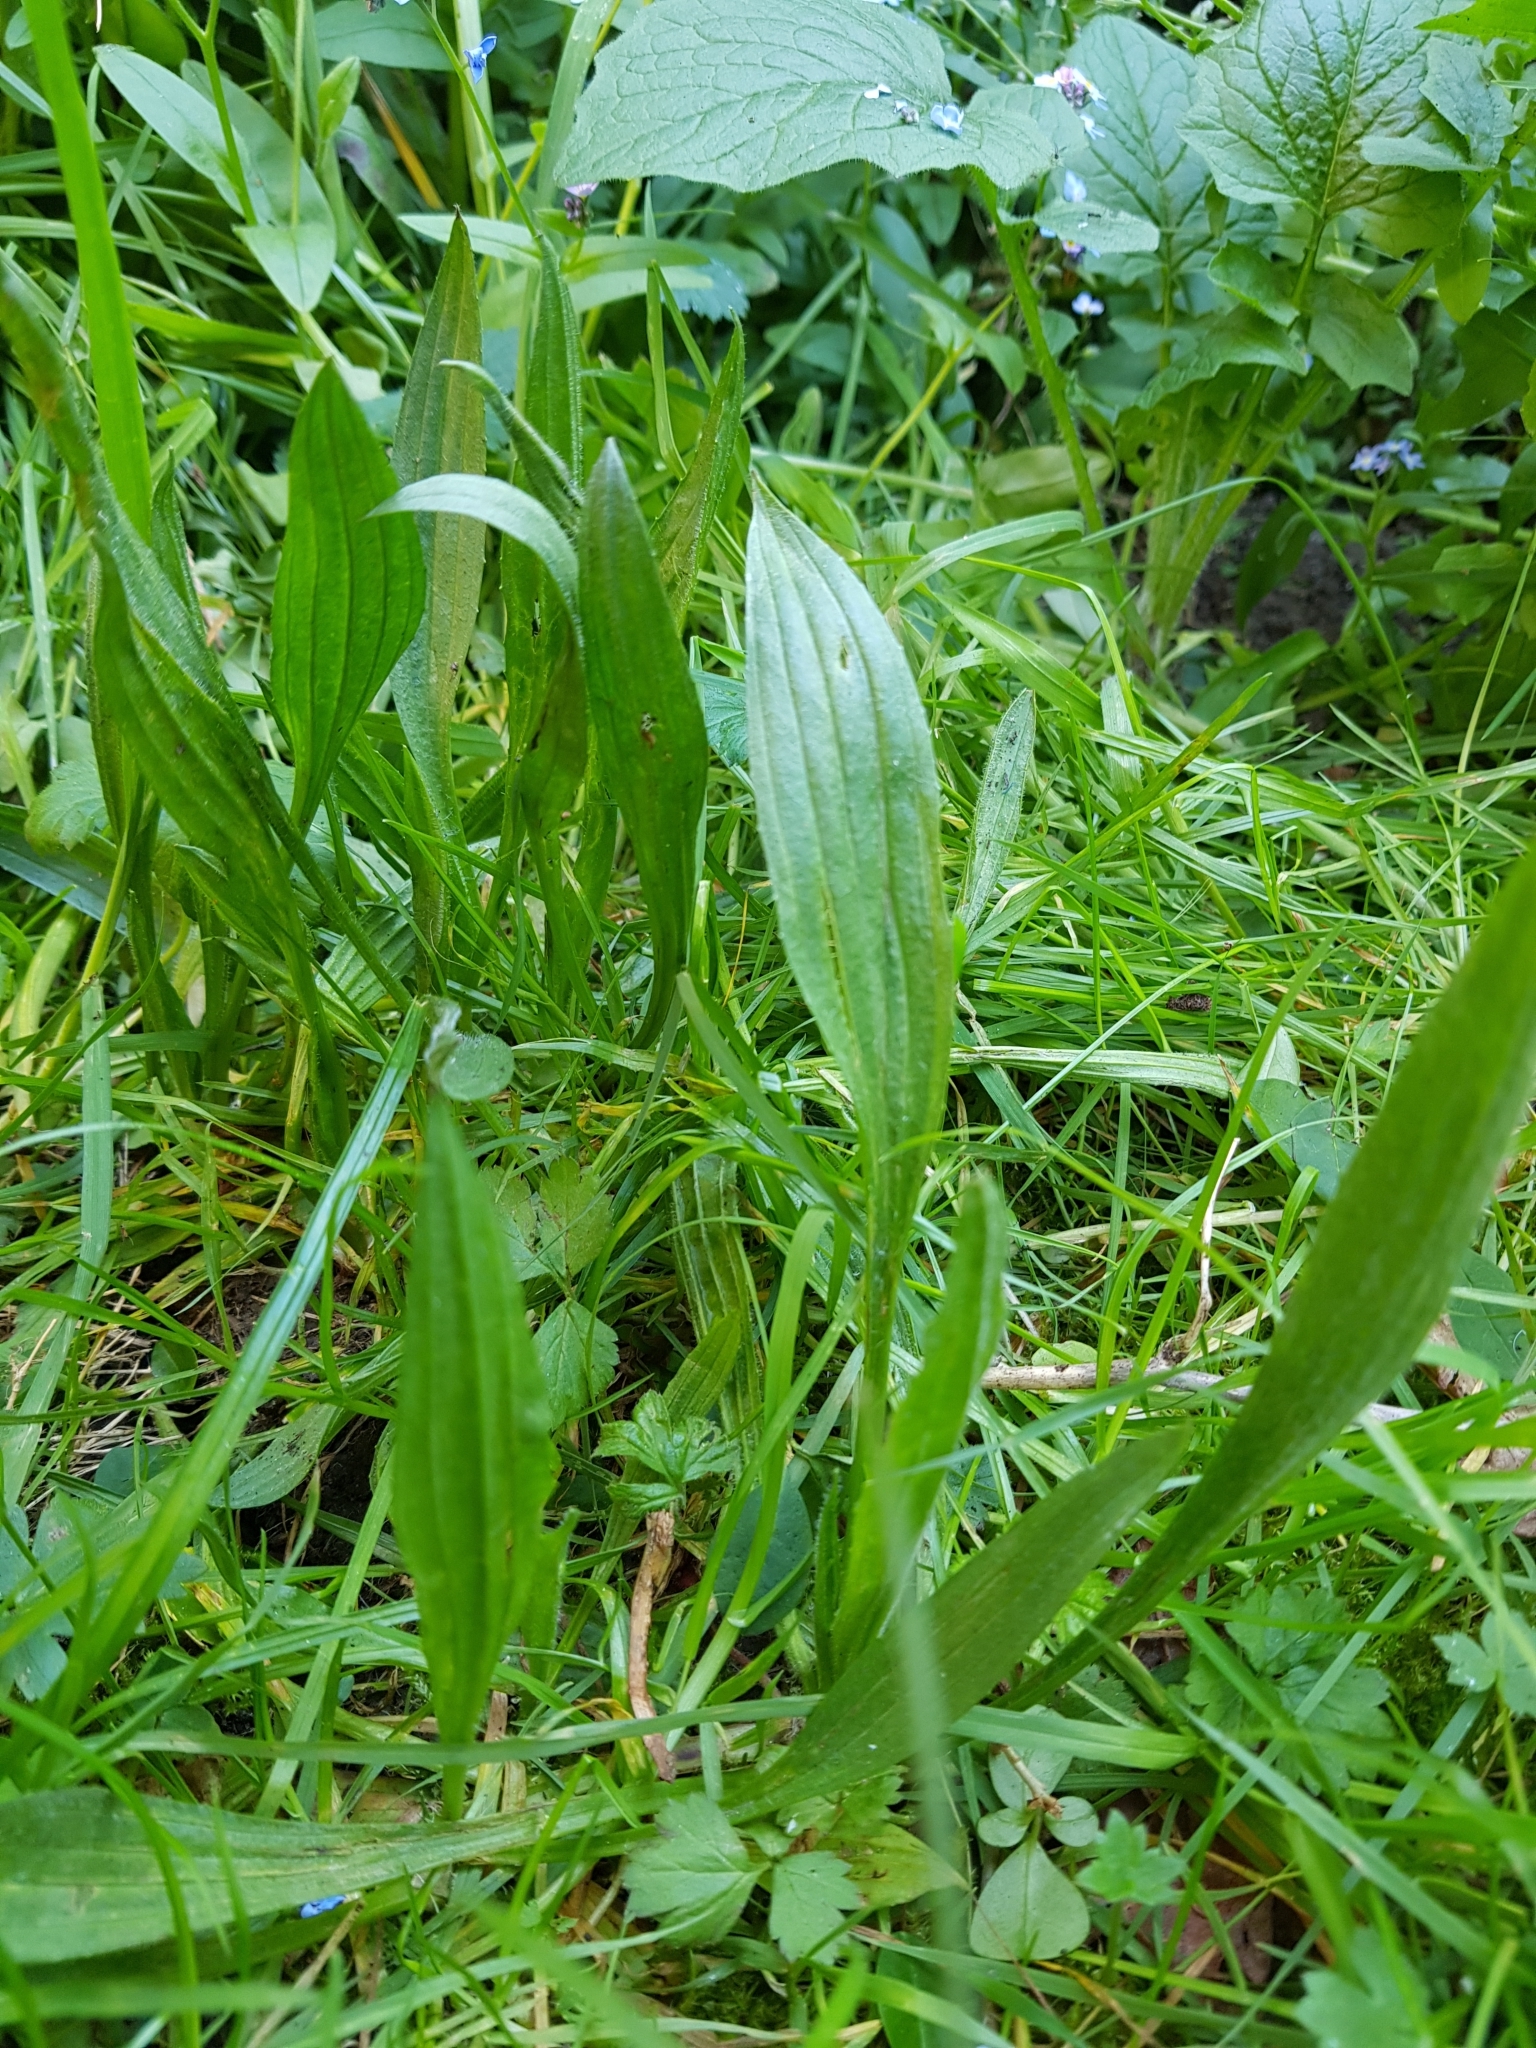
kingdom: Plantae
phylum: Tracheophyta
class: Magnoliopsida
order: Lamiales
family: Plantaginaceae
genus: Plantago
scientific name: Plantago lanceolata
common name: Ribwort plantain
